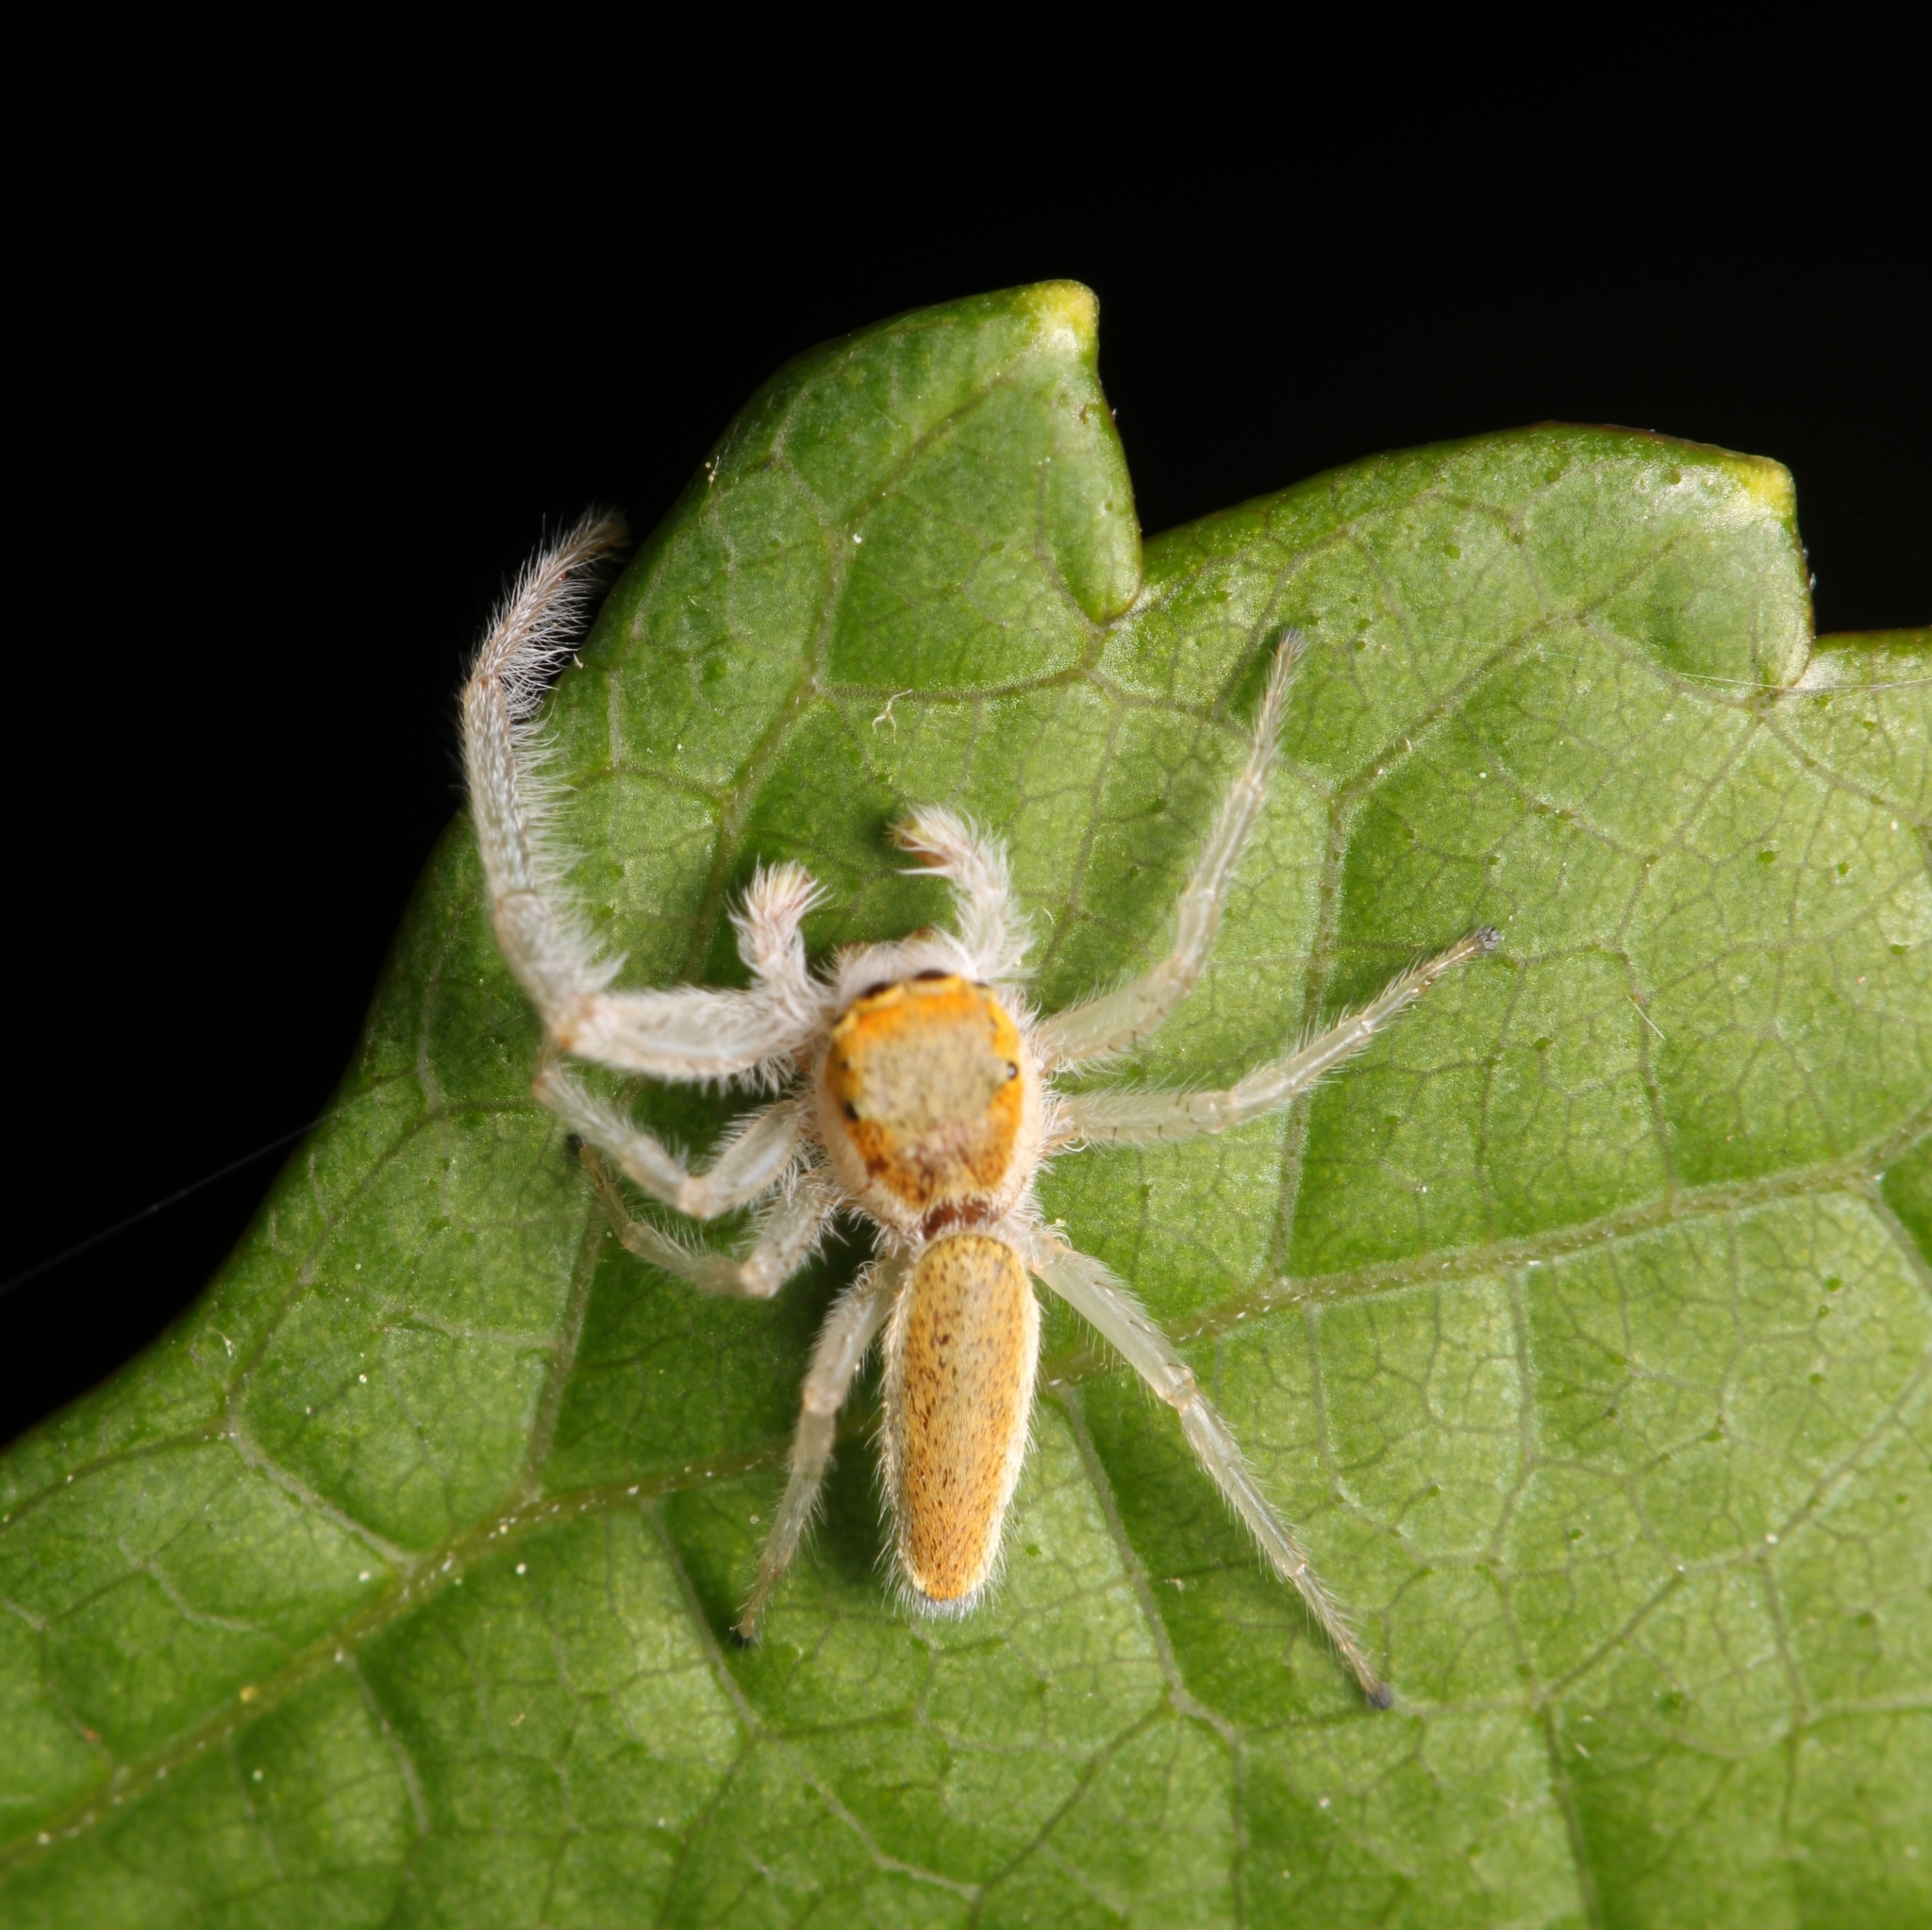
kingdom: Animalia
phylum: Arthropoda
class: Arachnida
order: Araneae
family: Salticidae
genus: Hentzia
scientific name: Hentzia mitrata
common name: White-jawed jumping spider
